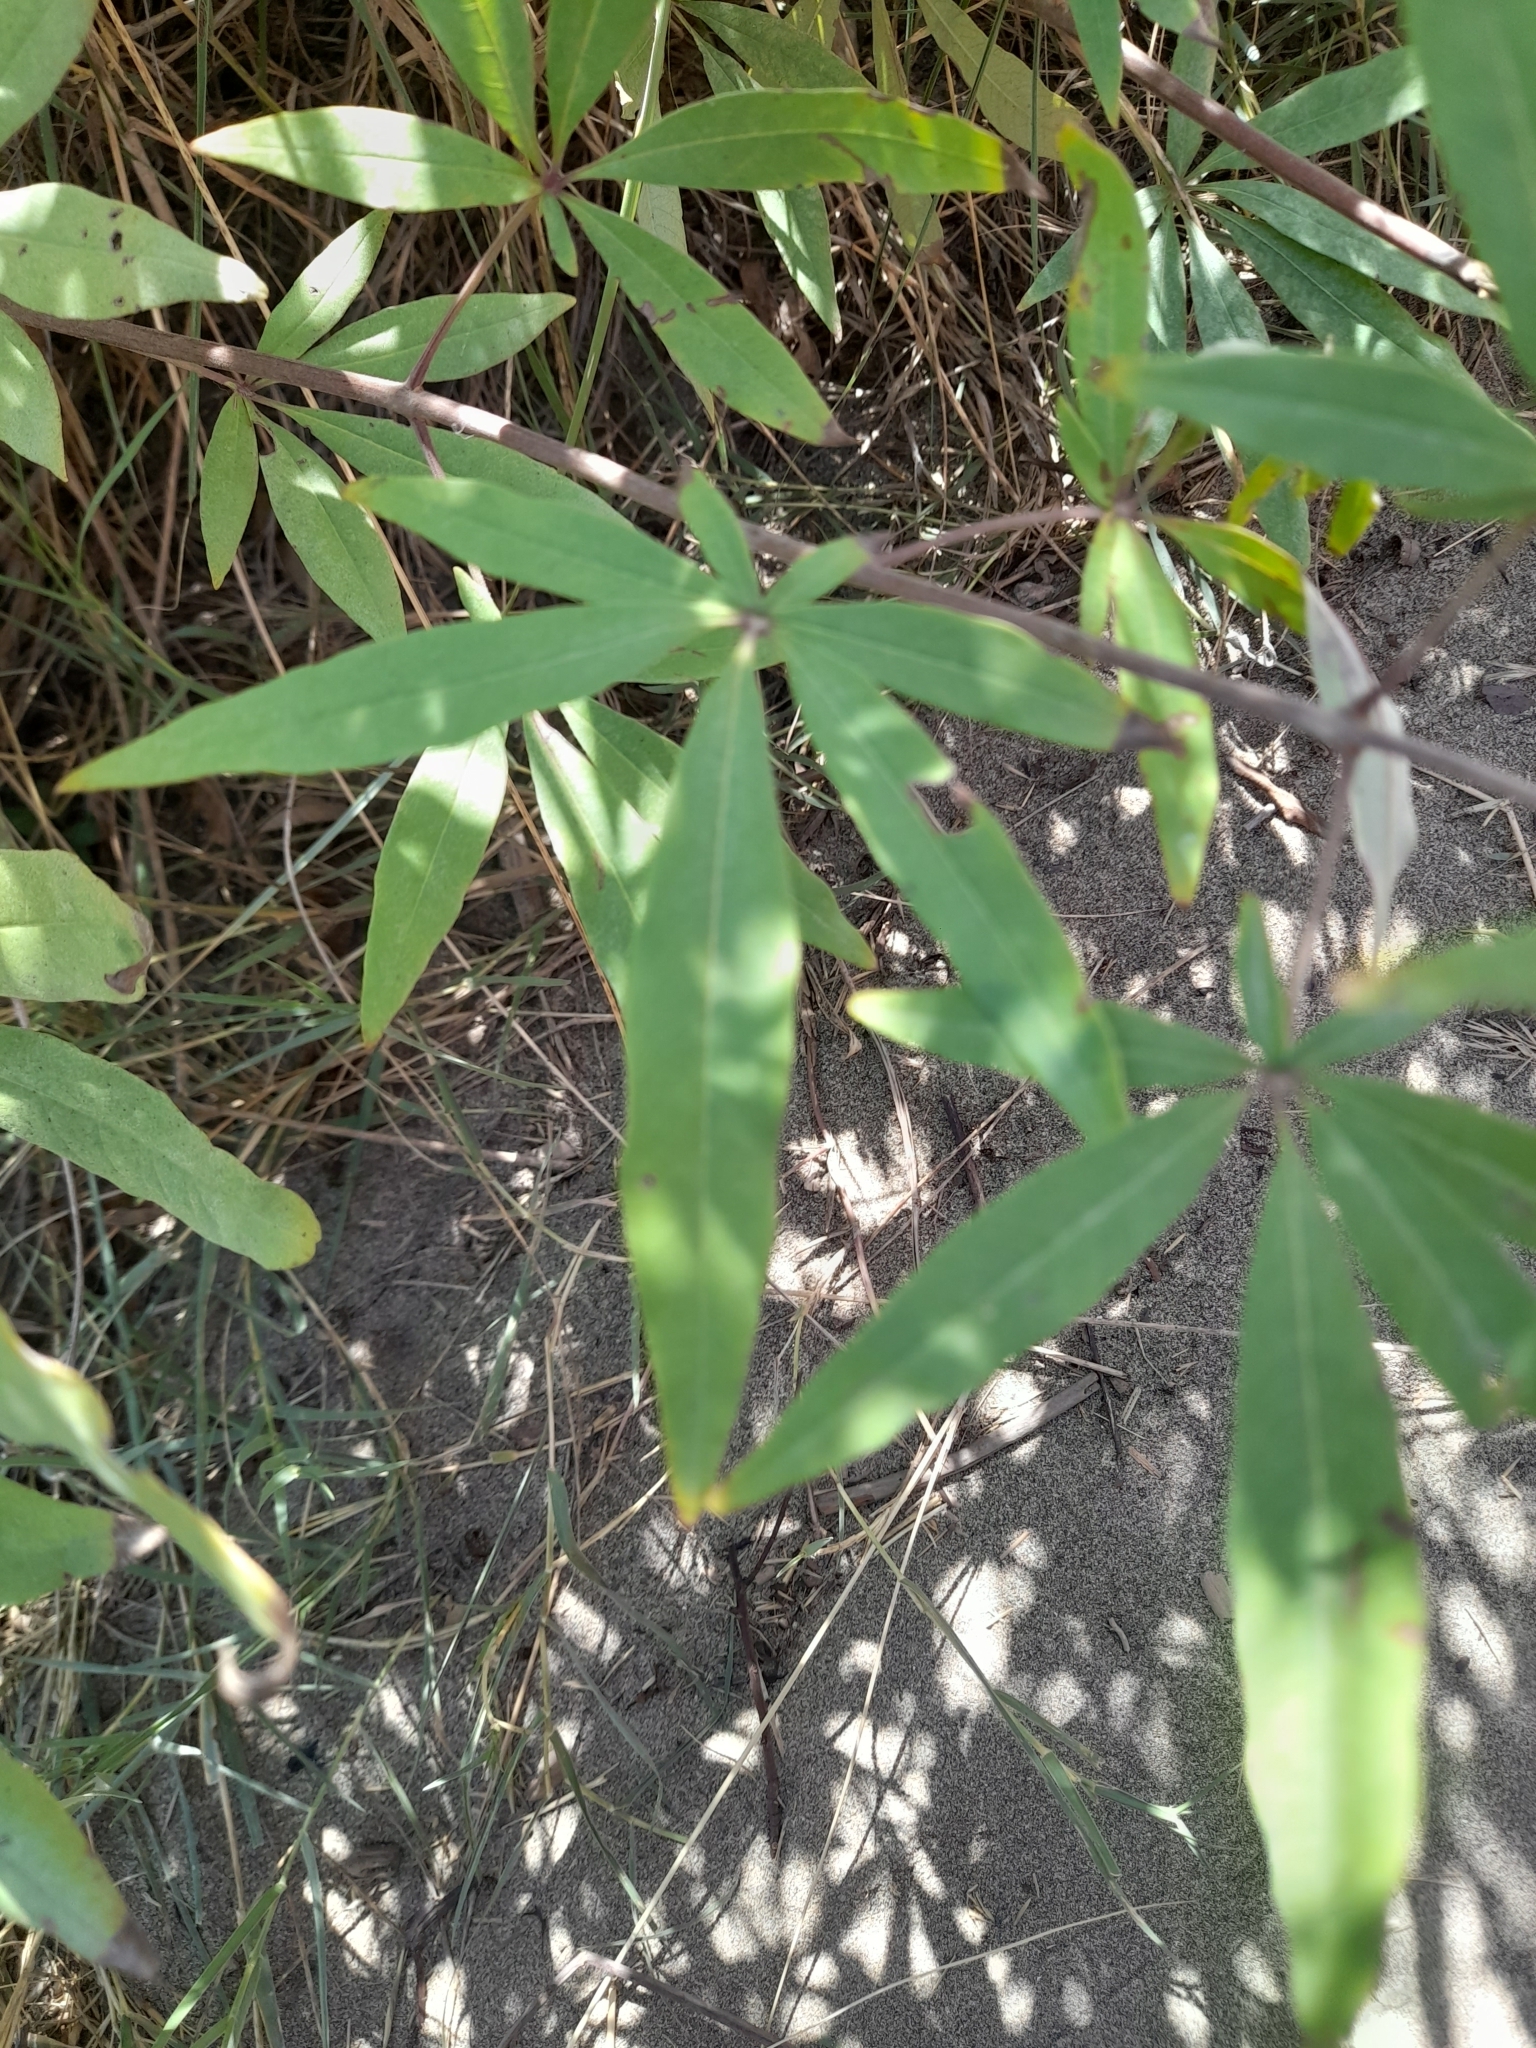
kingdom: Plantae
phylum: Tracheophyta
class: Magnoliopsida
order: Lamiales
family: Lamiaceae
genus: Vitex
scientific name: Vitex agnus-castus
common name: Chasteberry
